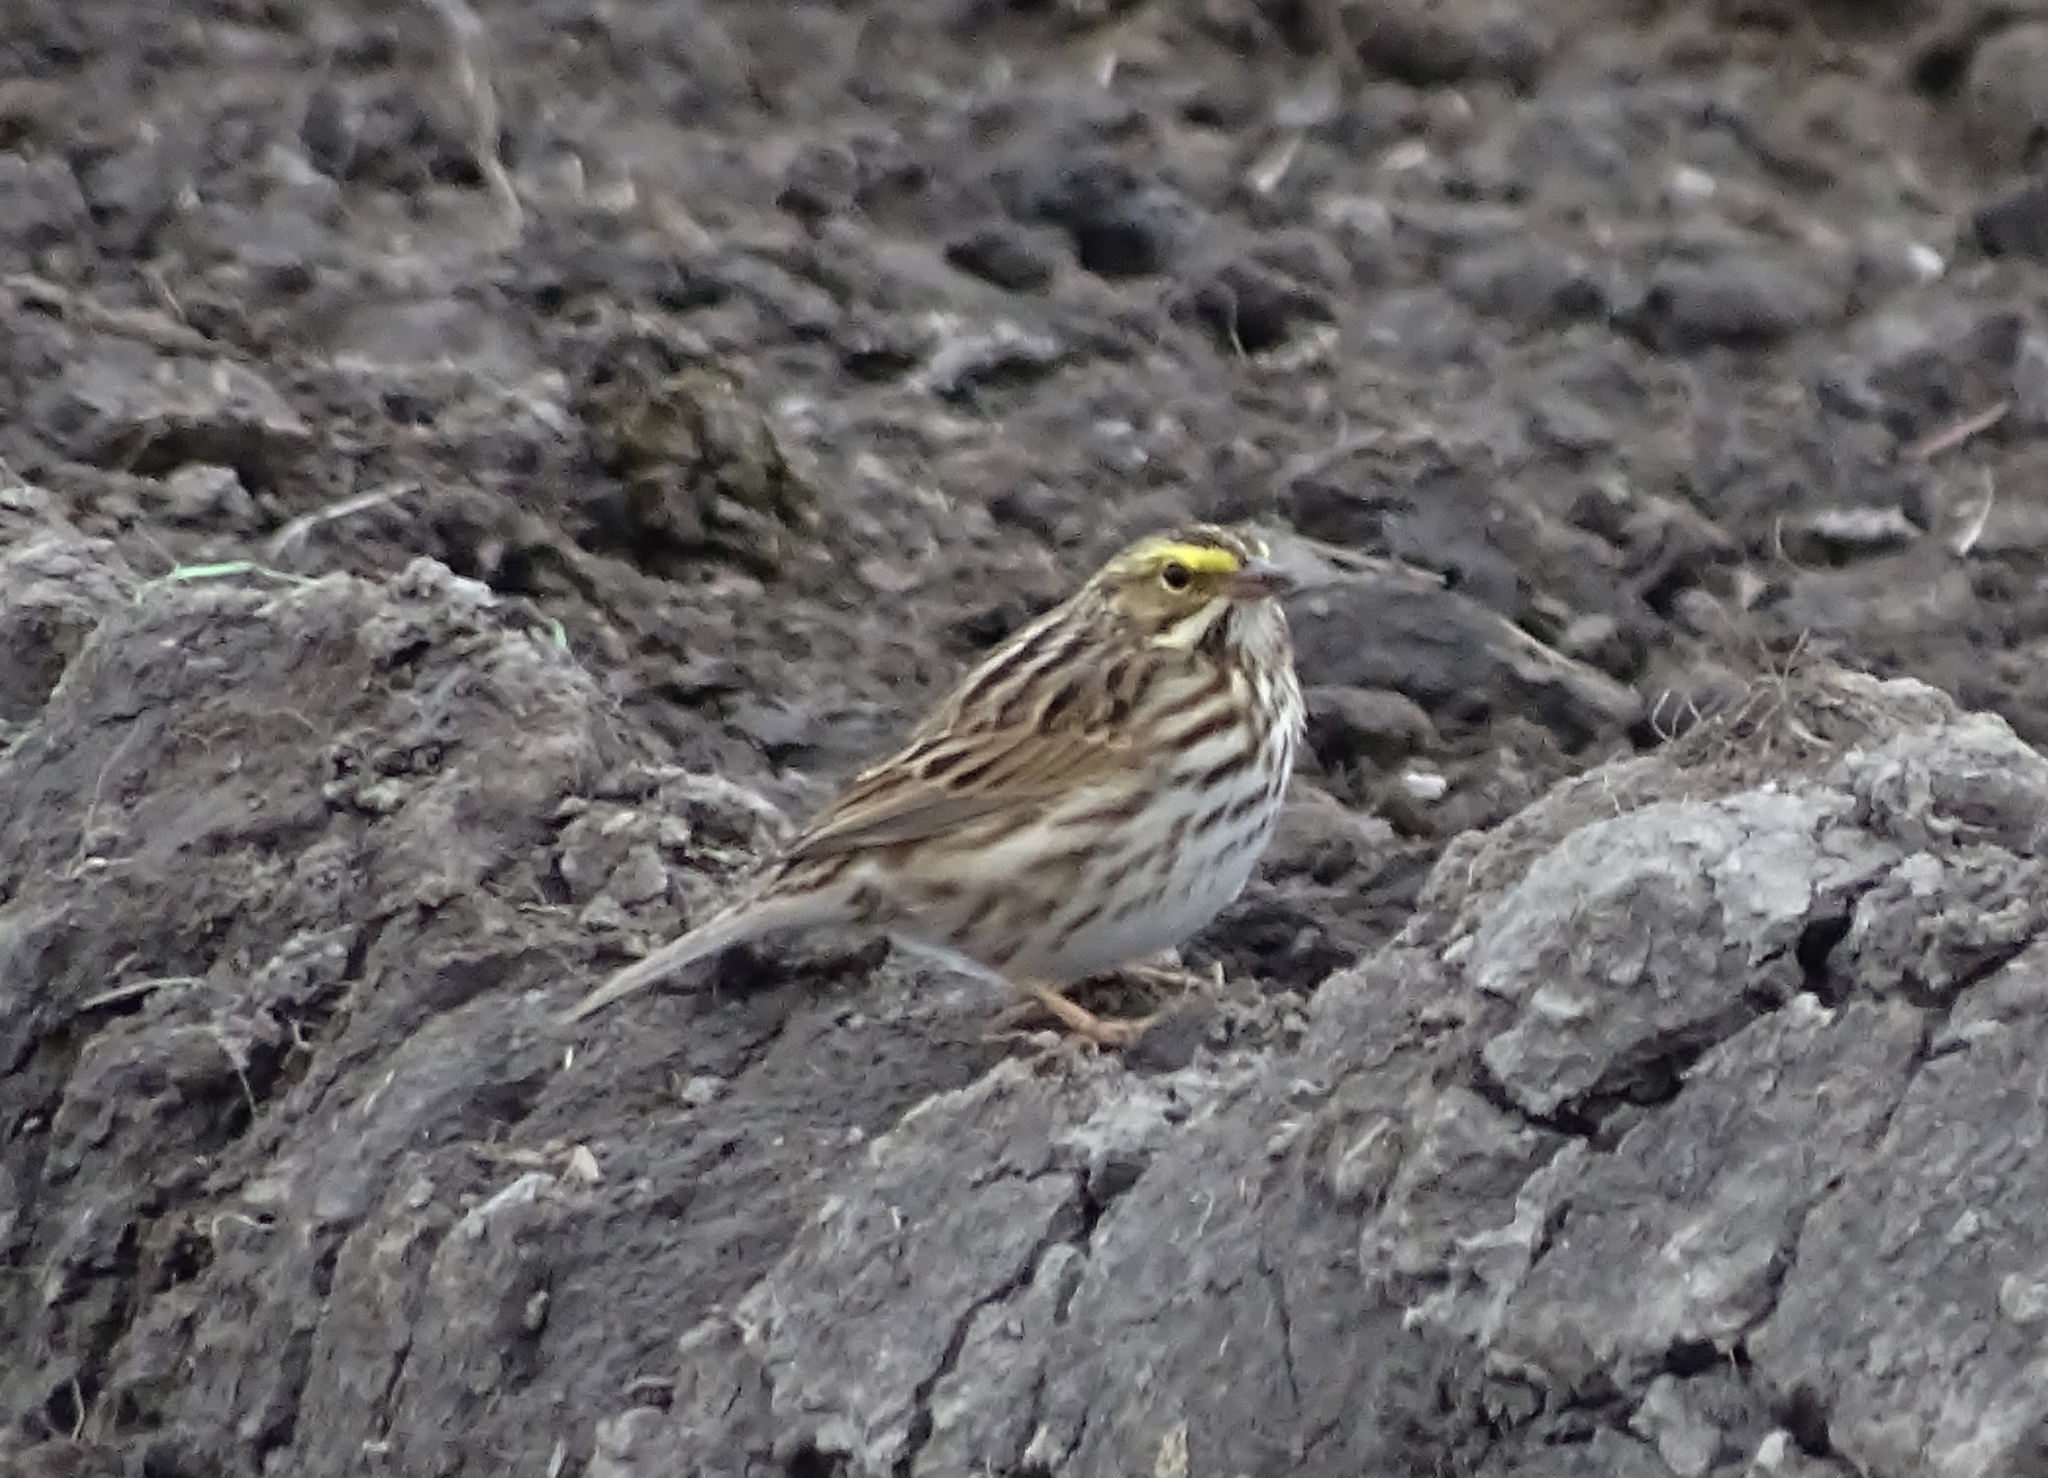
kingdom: Animalia
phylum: Chordata
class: Aves
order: Passeriformes
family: Passerellidae
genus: Passerculus
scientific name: Passerculus sandwichensis
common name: Savannah sparrow
